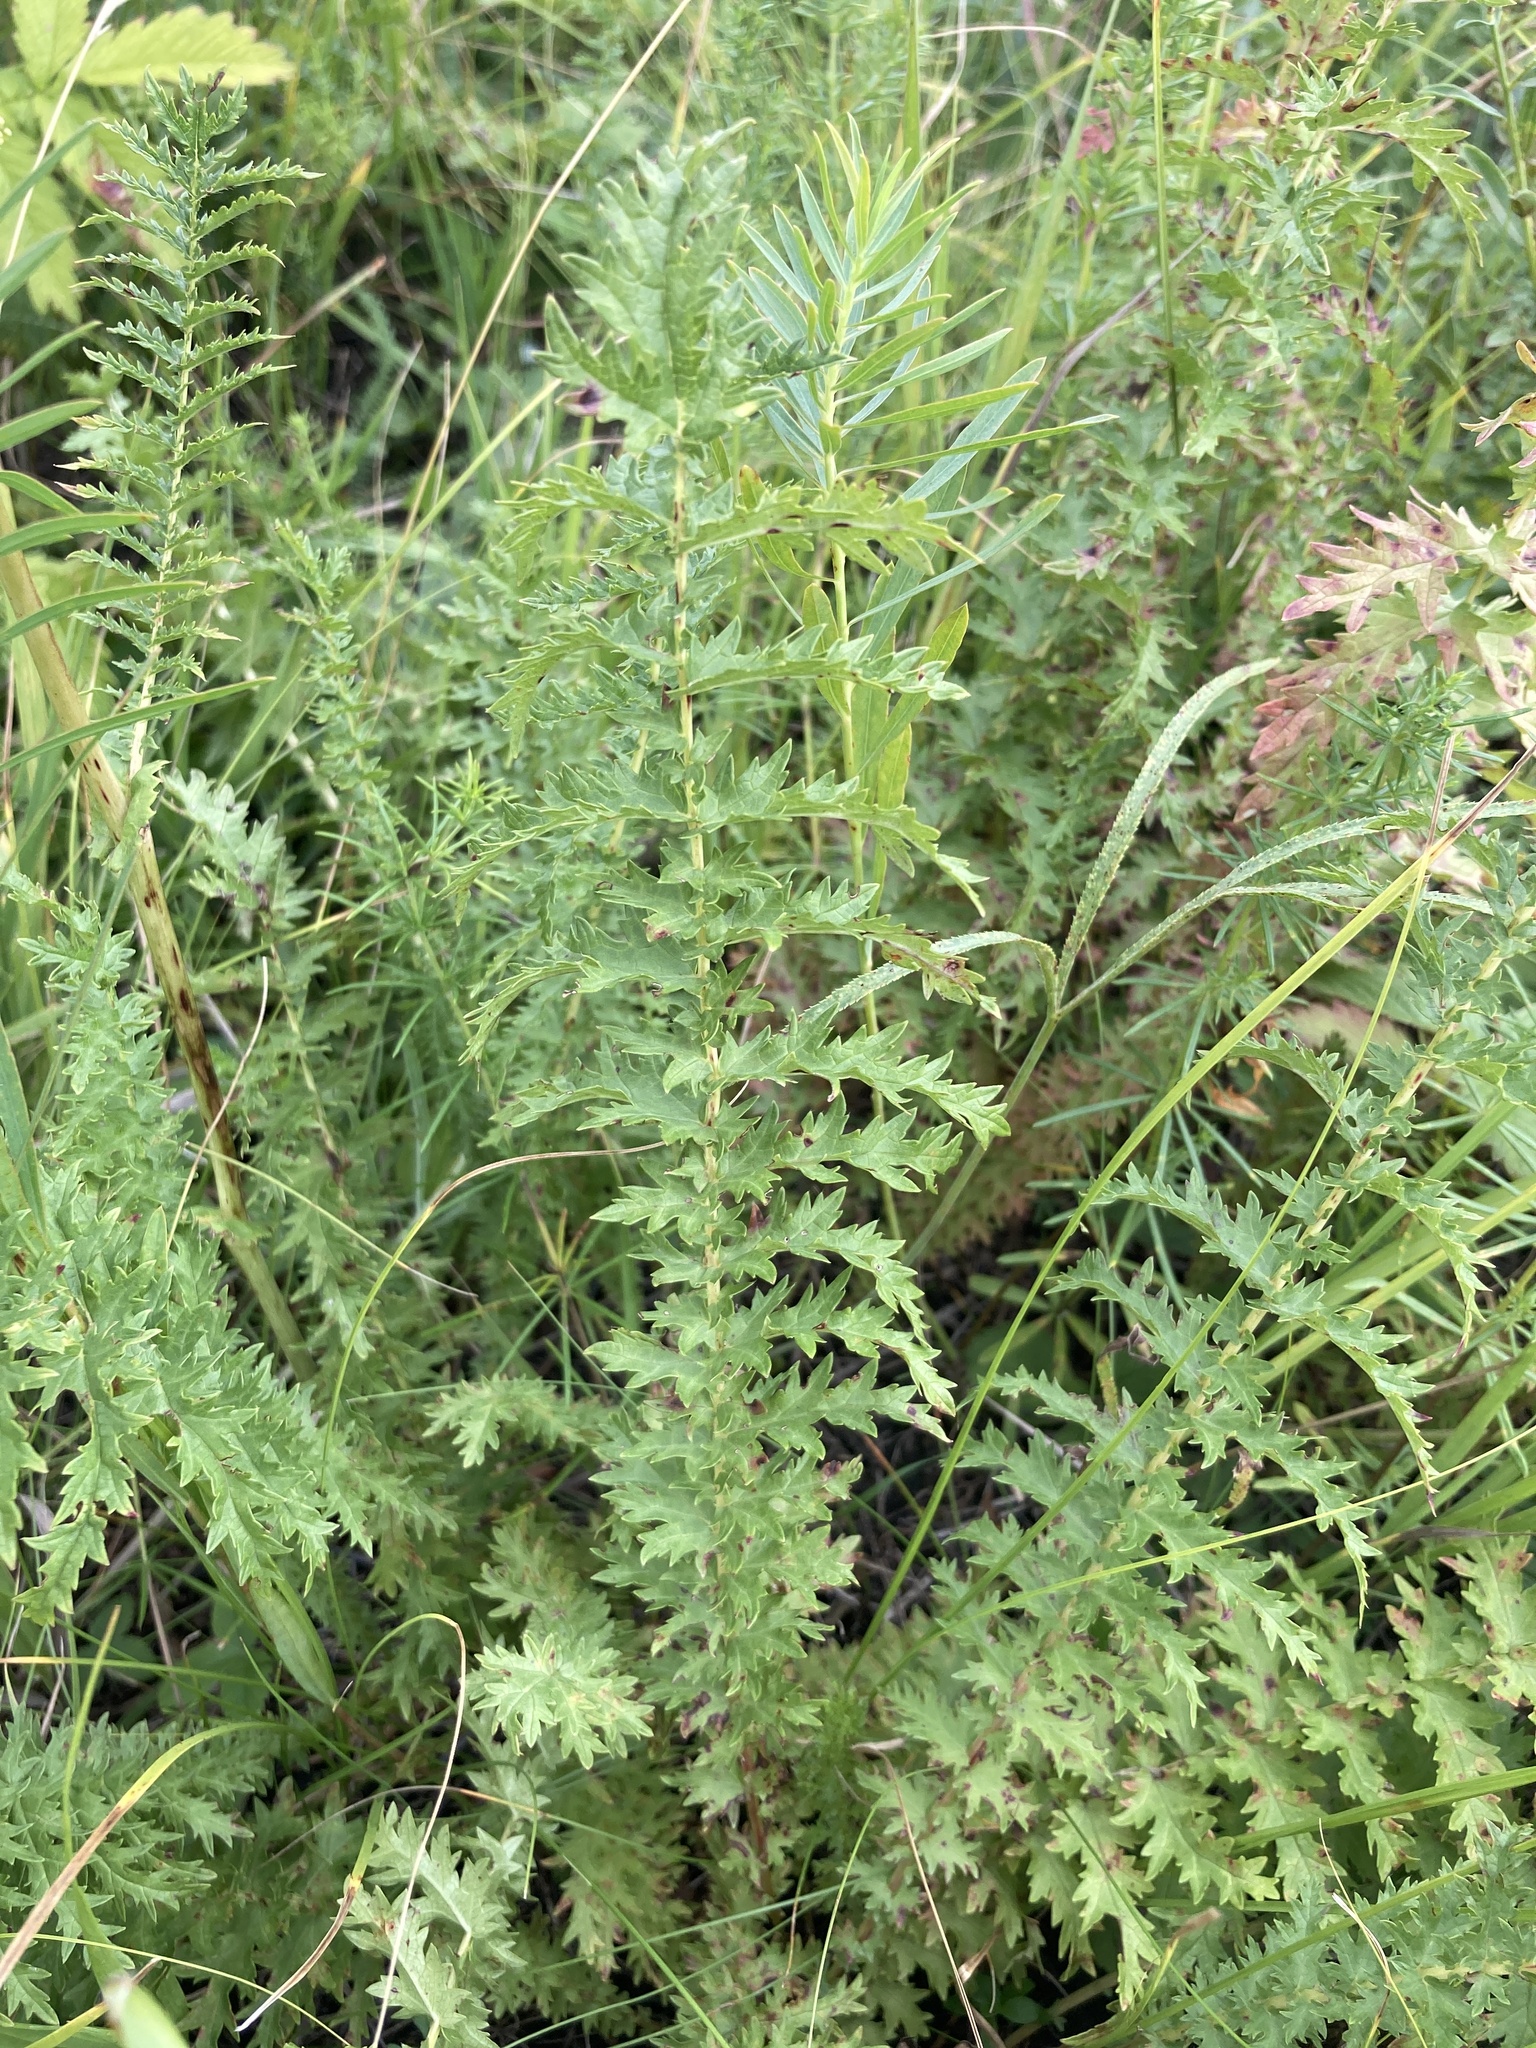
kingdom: Plantae
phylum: Tracheophyta
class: Magnoliopsida
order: Rosales
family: Rosaceae
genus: Filipendula
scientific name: Filipendula vulgaris
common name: Dropwort
